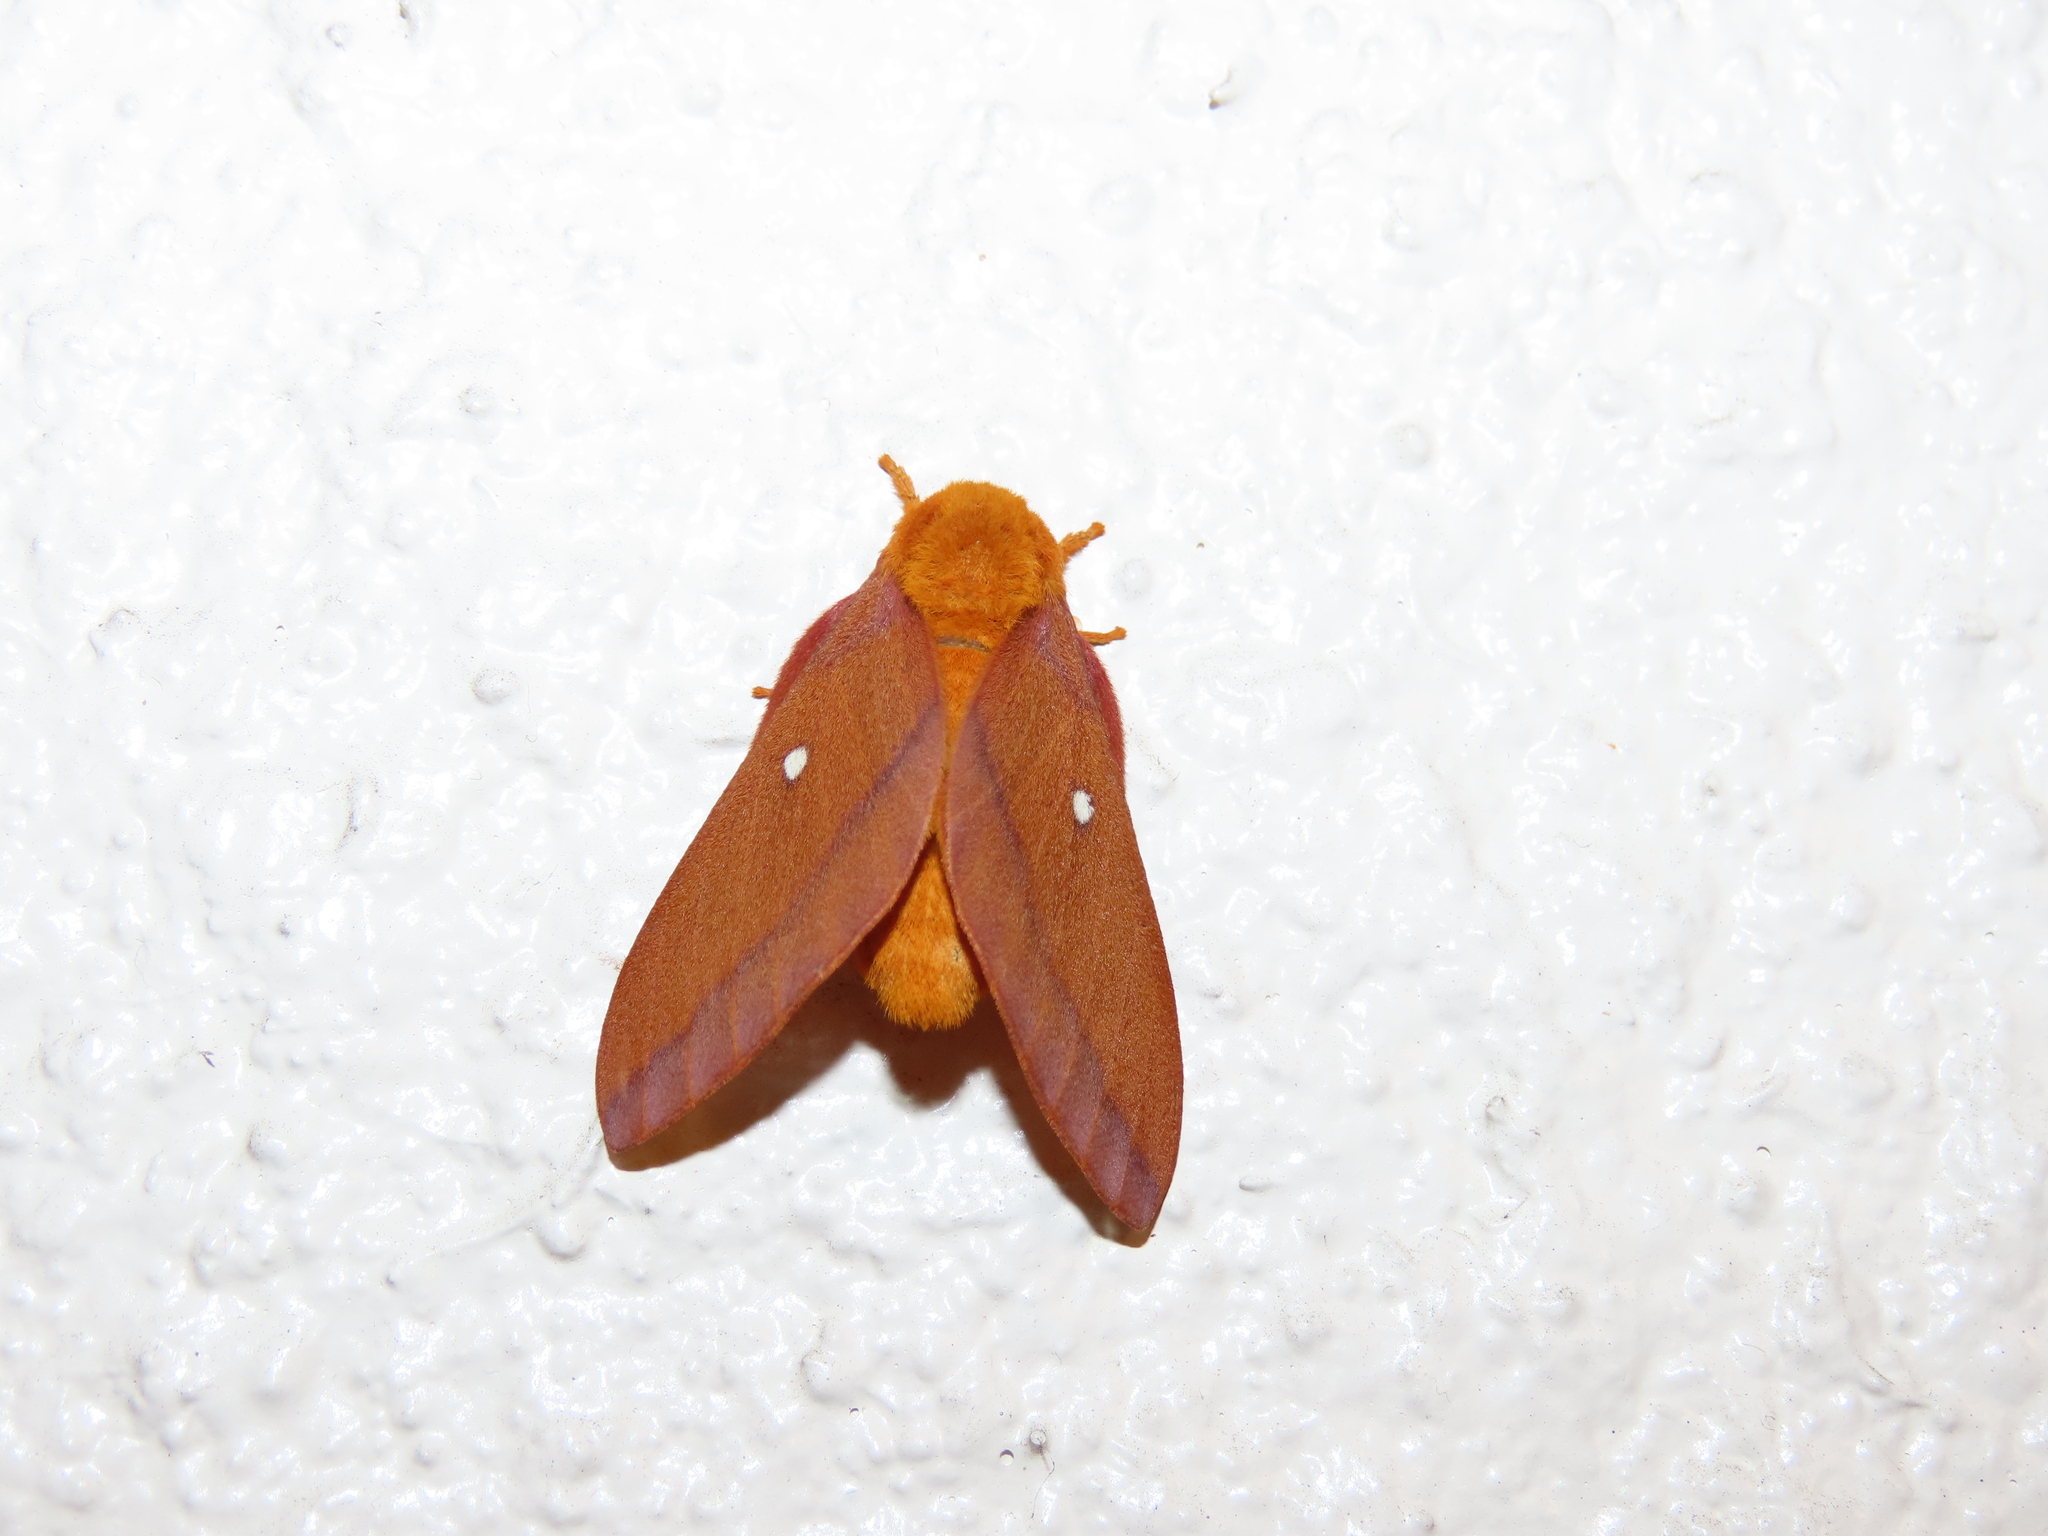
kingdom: Animalia
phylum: Arthropoda
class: Insecta
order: Lepidoptera
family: Saturniidae
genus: Anisota
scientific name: Anisota virginiensis
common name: Pink striped oakworm moth
